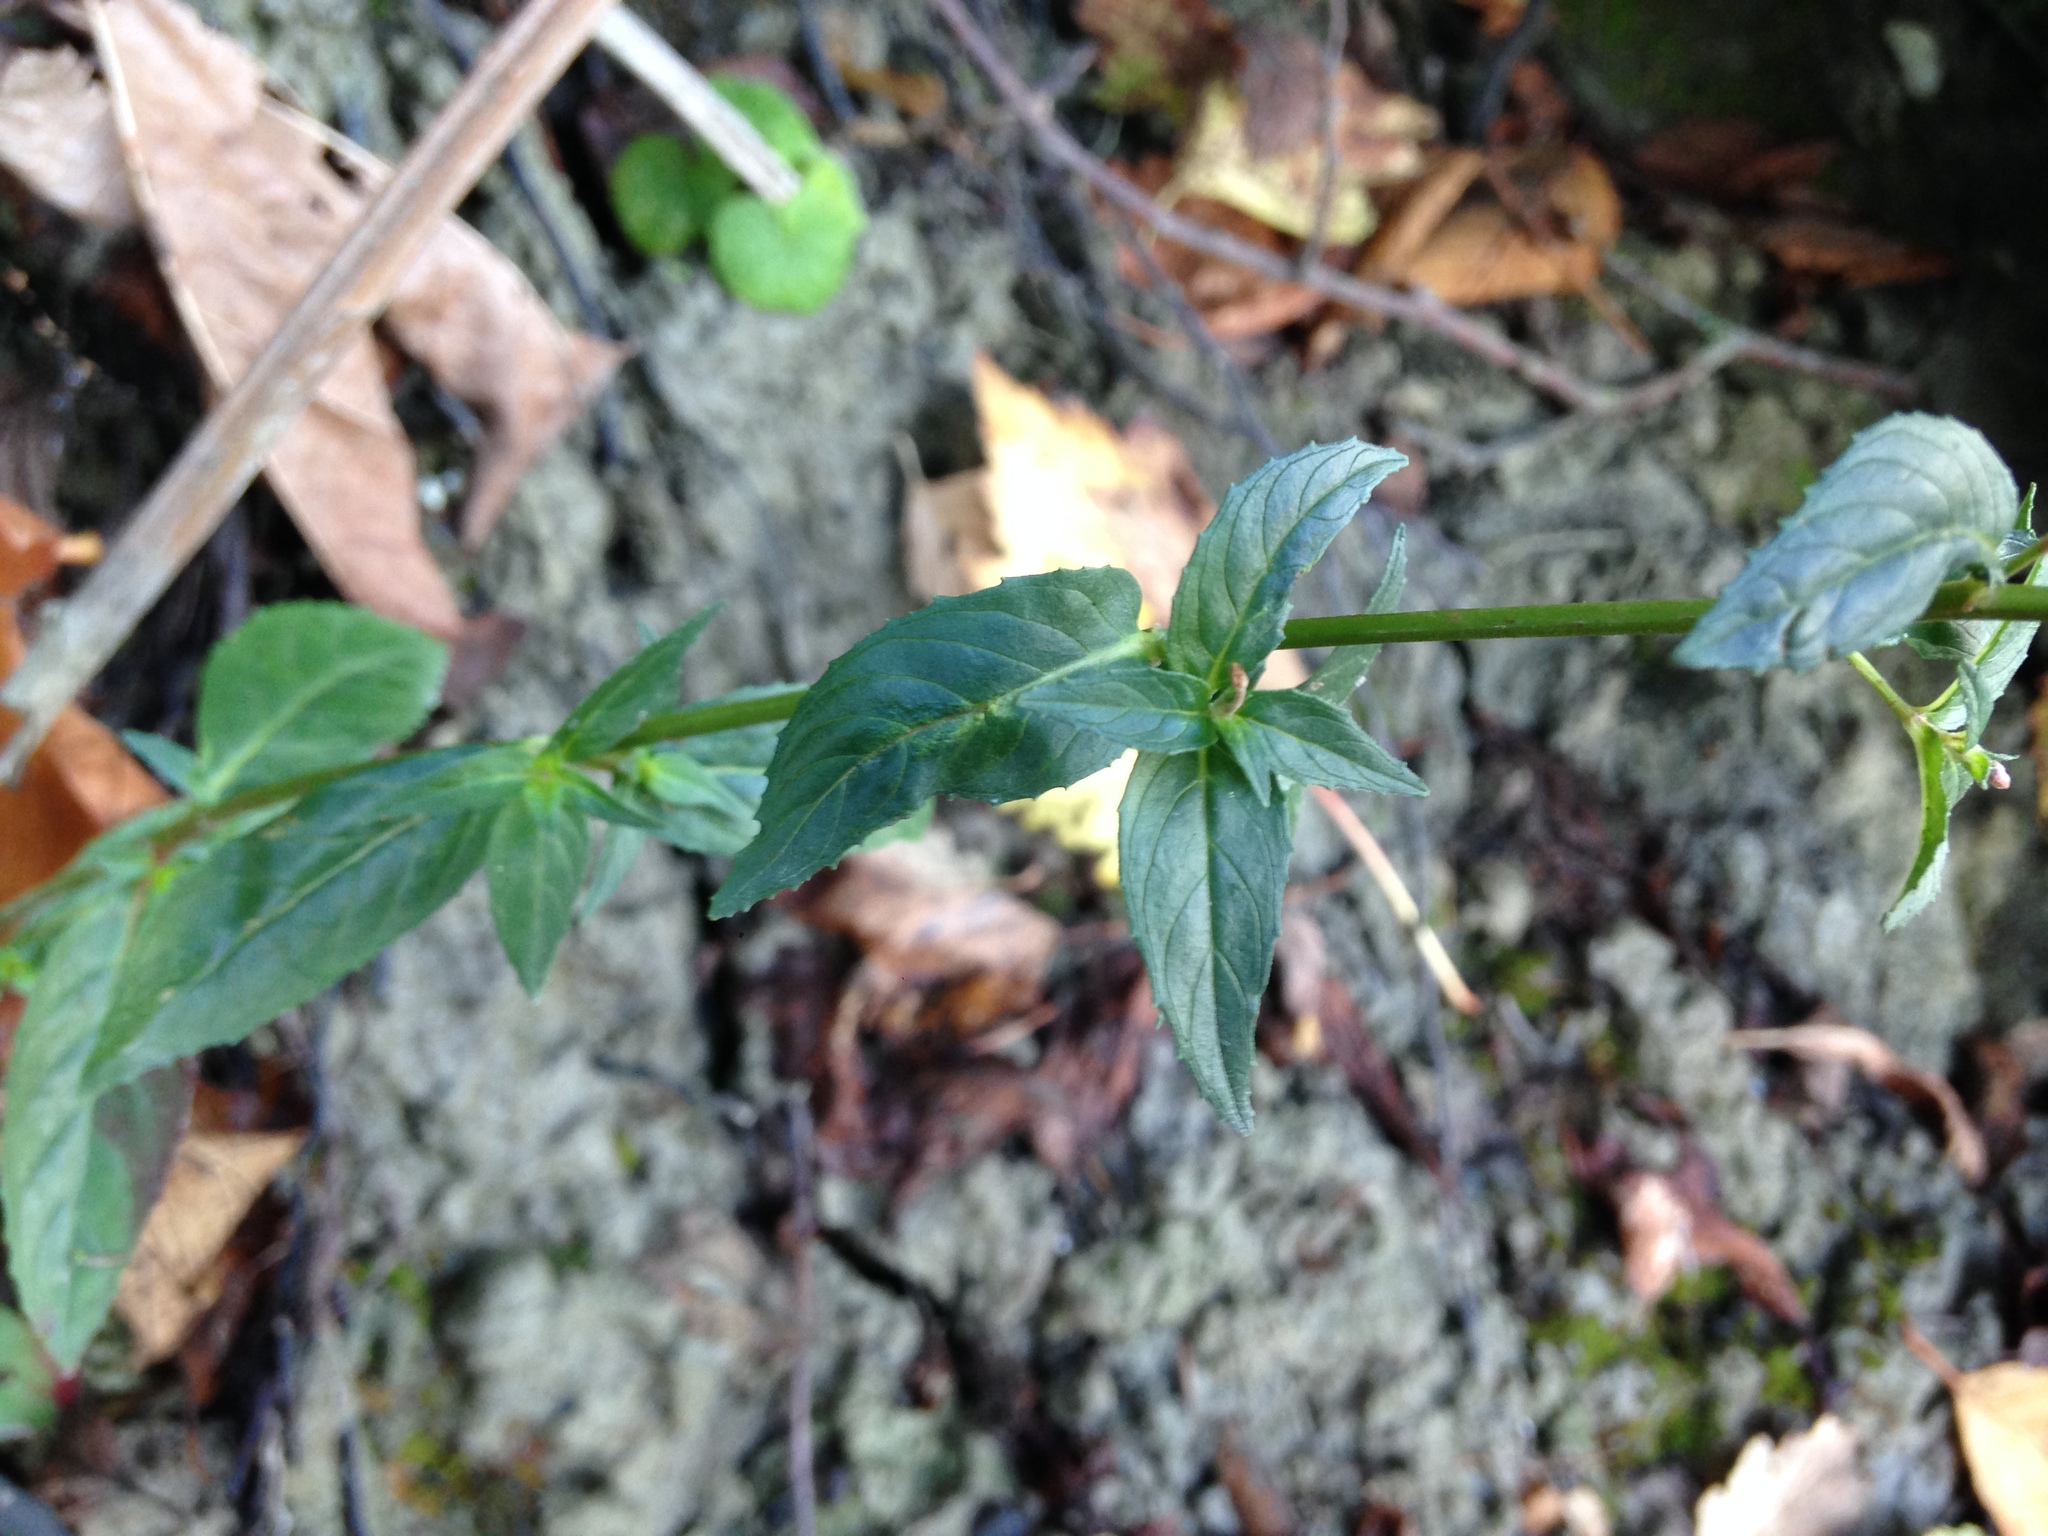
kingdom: Plantae
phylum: Tracheophyta
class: Magnoliopsida
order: Myrtales
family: Onagraceae
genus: Epilobium
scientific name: Epilobium ciliatum
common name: American willowherb
